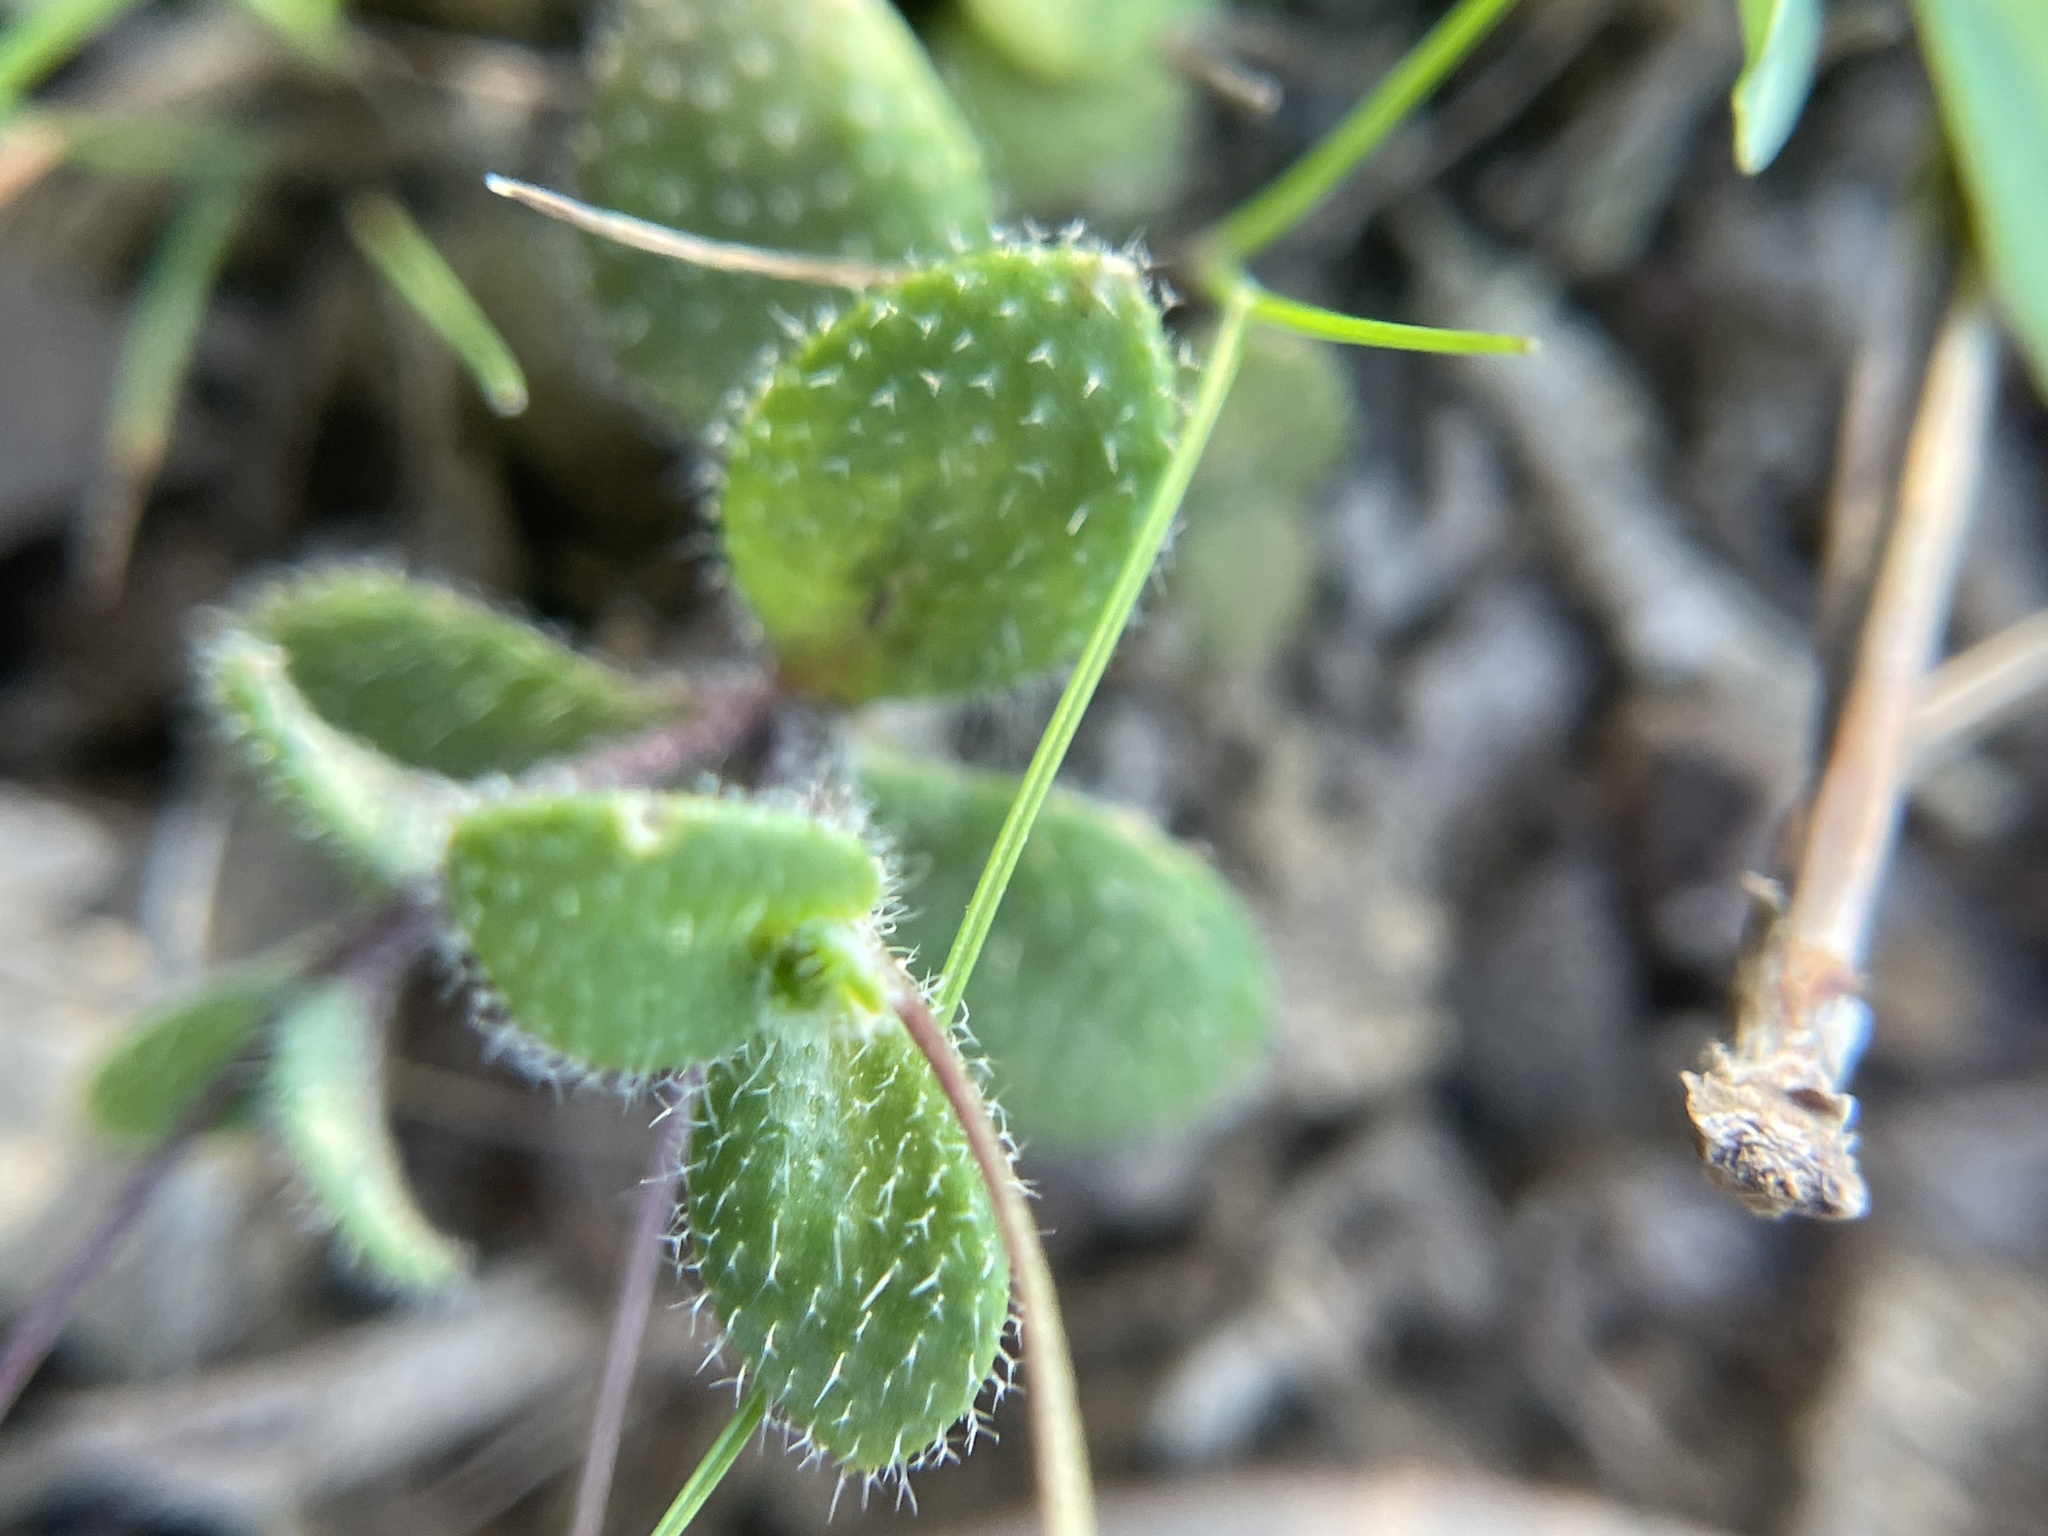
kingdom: Plantae
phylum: Tracheophyta
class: Magnoliopsida
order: Brassicales
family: Brassicaceae
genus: Tomostima
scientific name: Tomostima reptans
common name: Carolina draba
